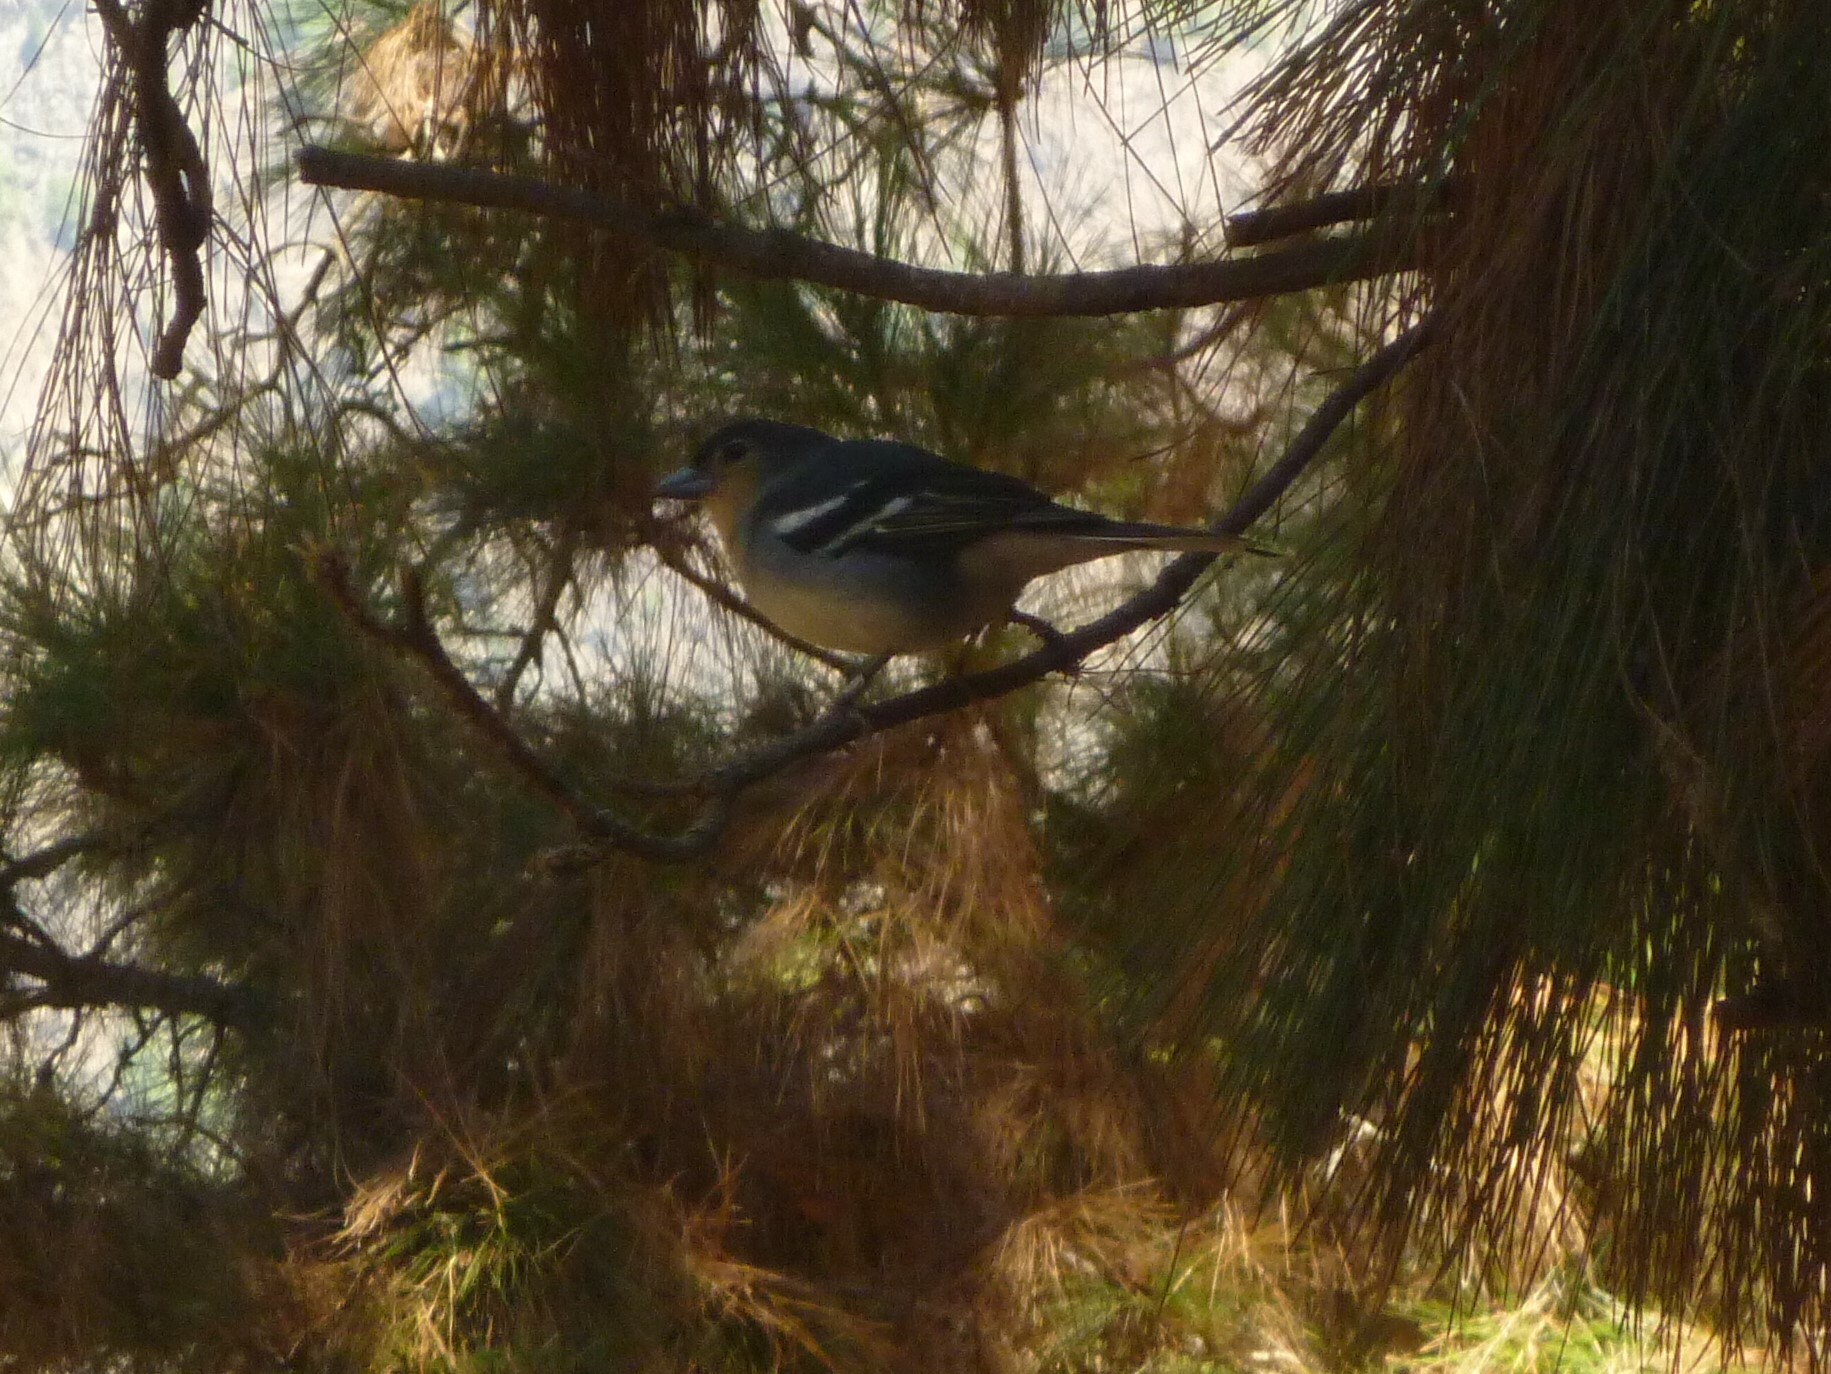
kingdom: Animalia
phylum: Chordata
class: Aves
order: Passeriformes
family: Fringillidae
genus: Fringilla
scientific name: Fringilla canariensis
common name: Canary islands chaffinch
